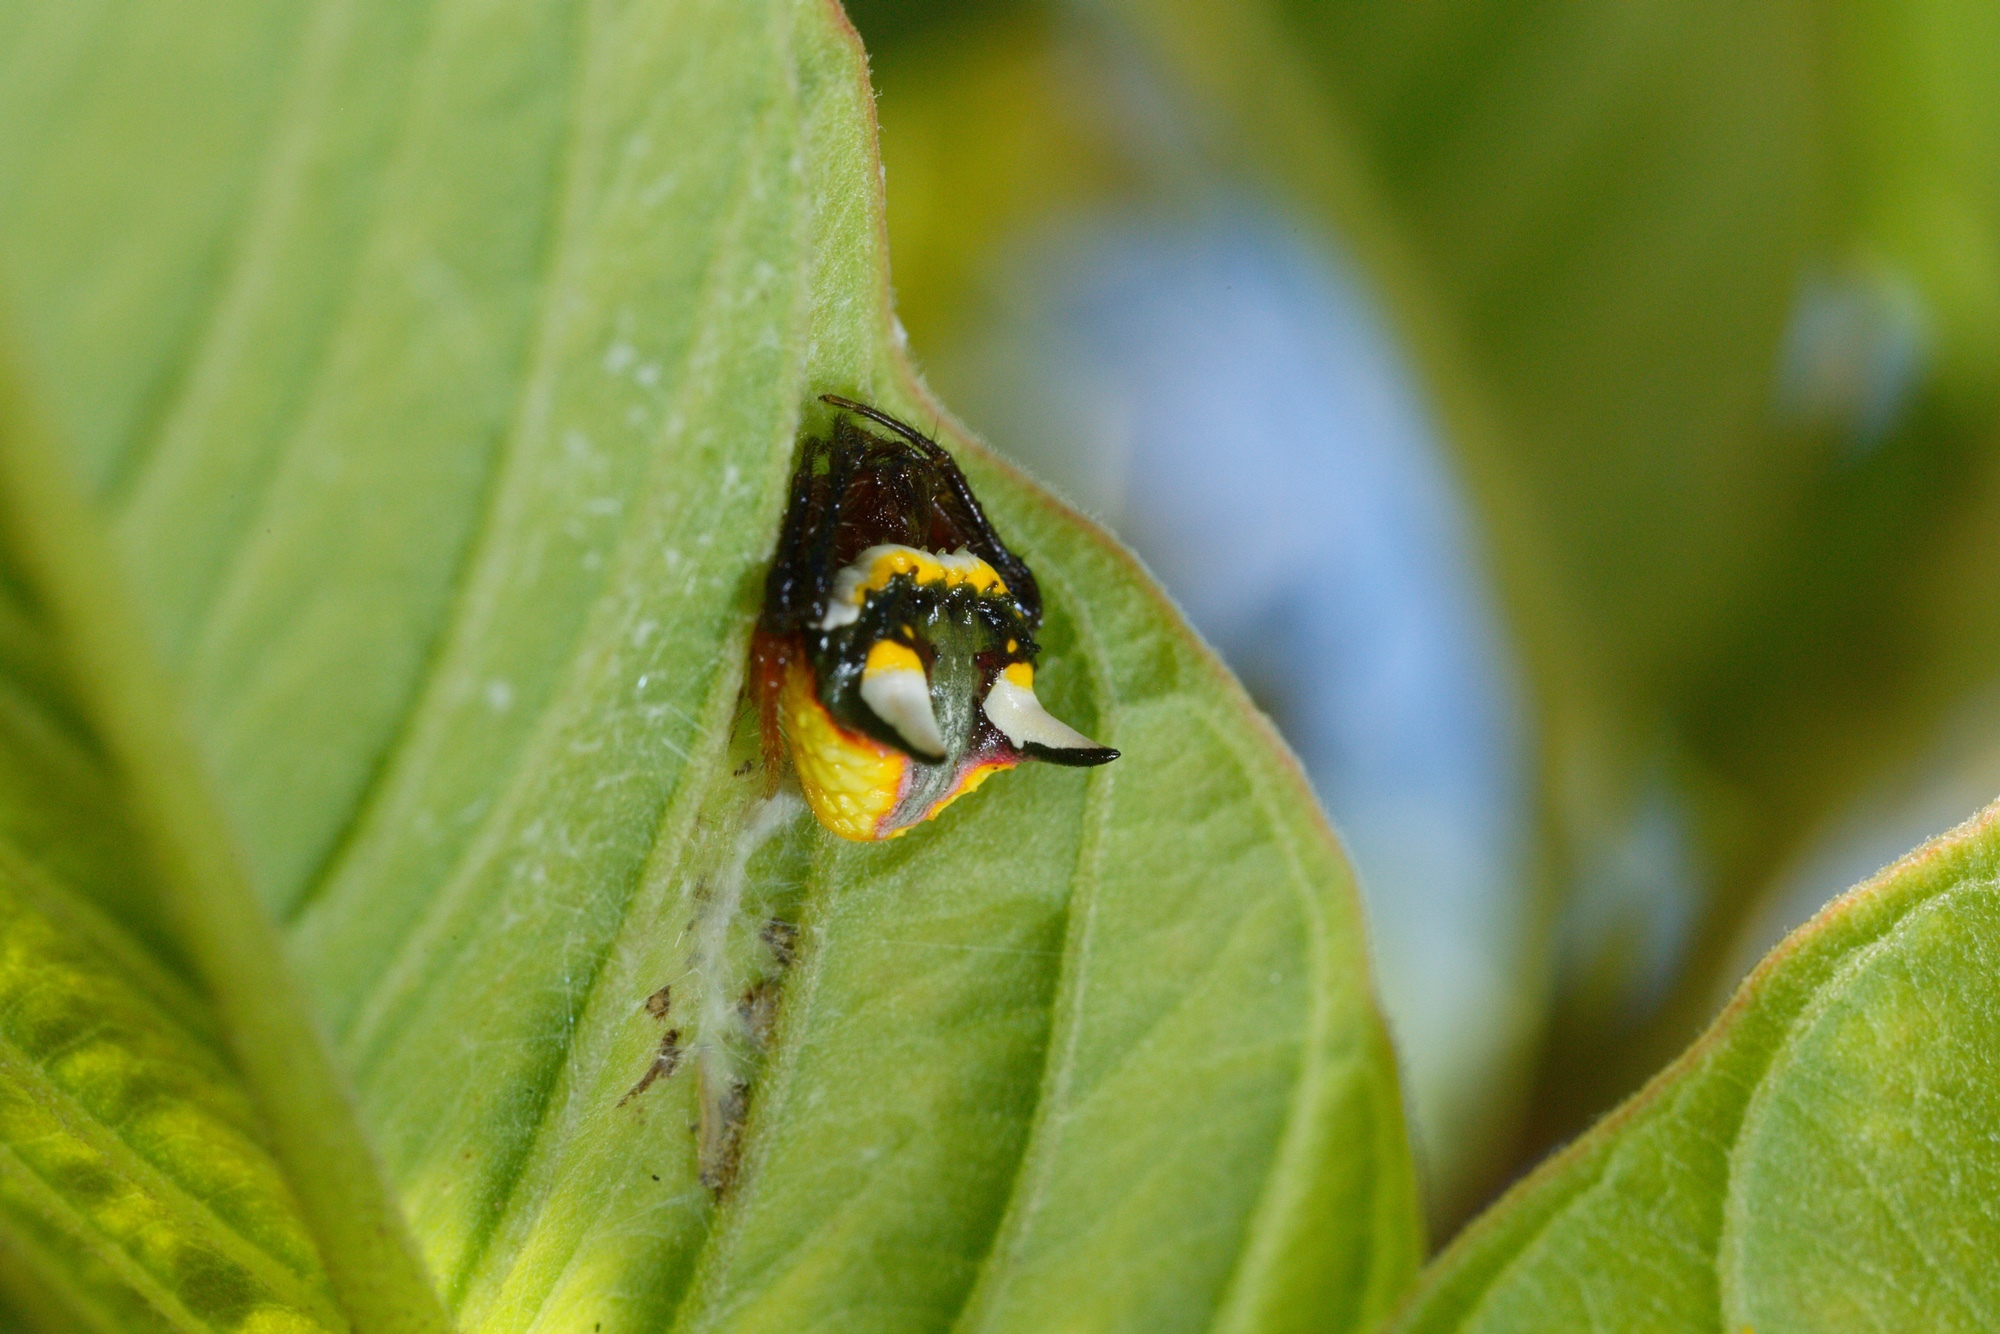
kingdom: Animalia
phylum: Arthropoda
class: Arachnida
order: Araneae
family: Araneidae
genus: Poecilopachys
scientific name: Poecilopachys australasia
